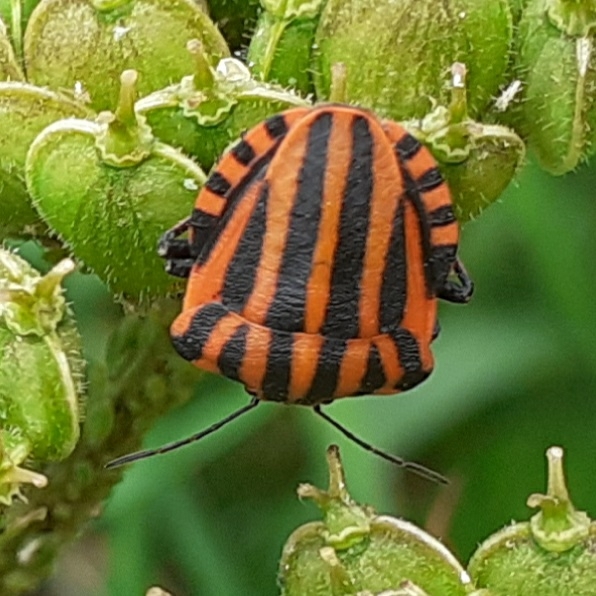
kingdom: Animalia
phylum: Arthropoda
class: Insecta
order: Hemiptera
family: Pentatomidae
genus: Graphosoma
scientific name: Graphosoma italicum
